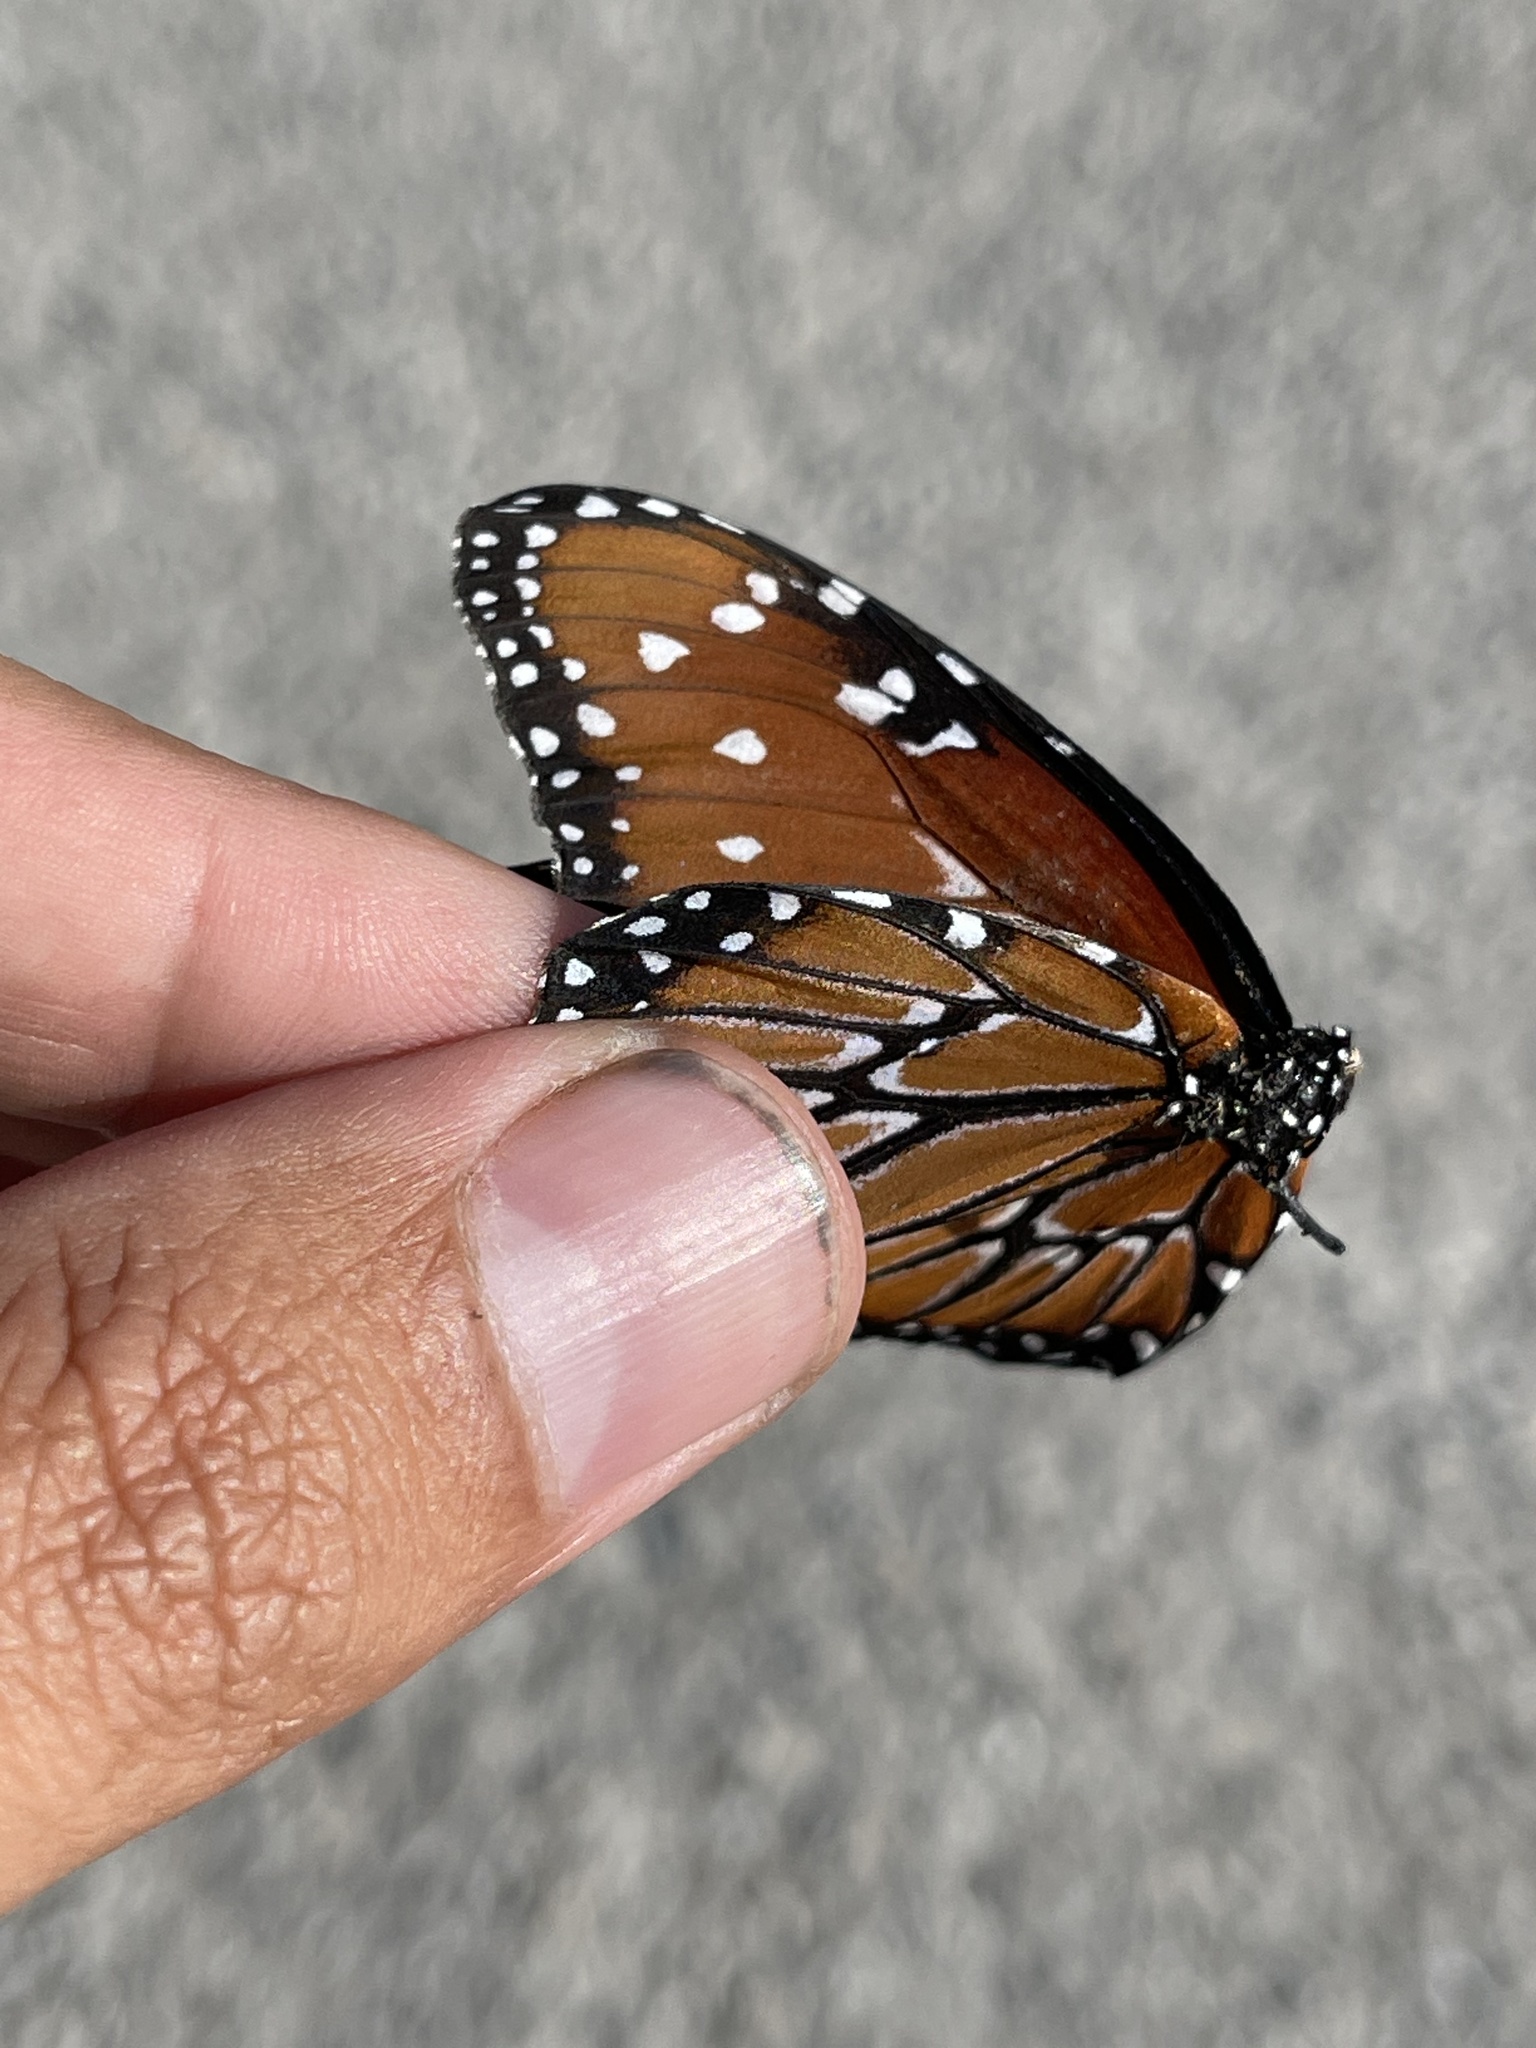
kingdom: Animalia
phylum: Arthropoda
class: Insecta
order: Lepidoptera
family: Nymphalidae
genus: Danaus
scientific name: Danaus gilippus
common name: Queen
